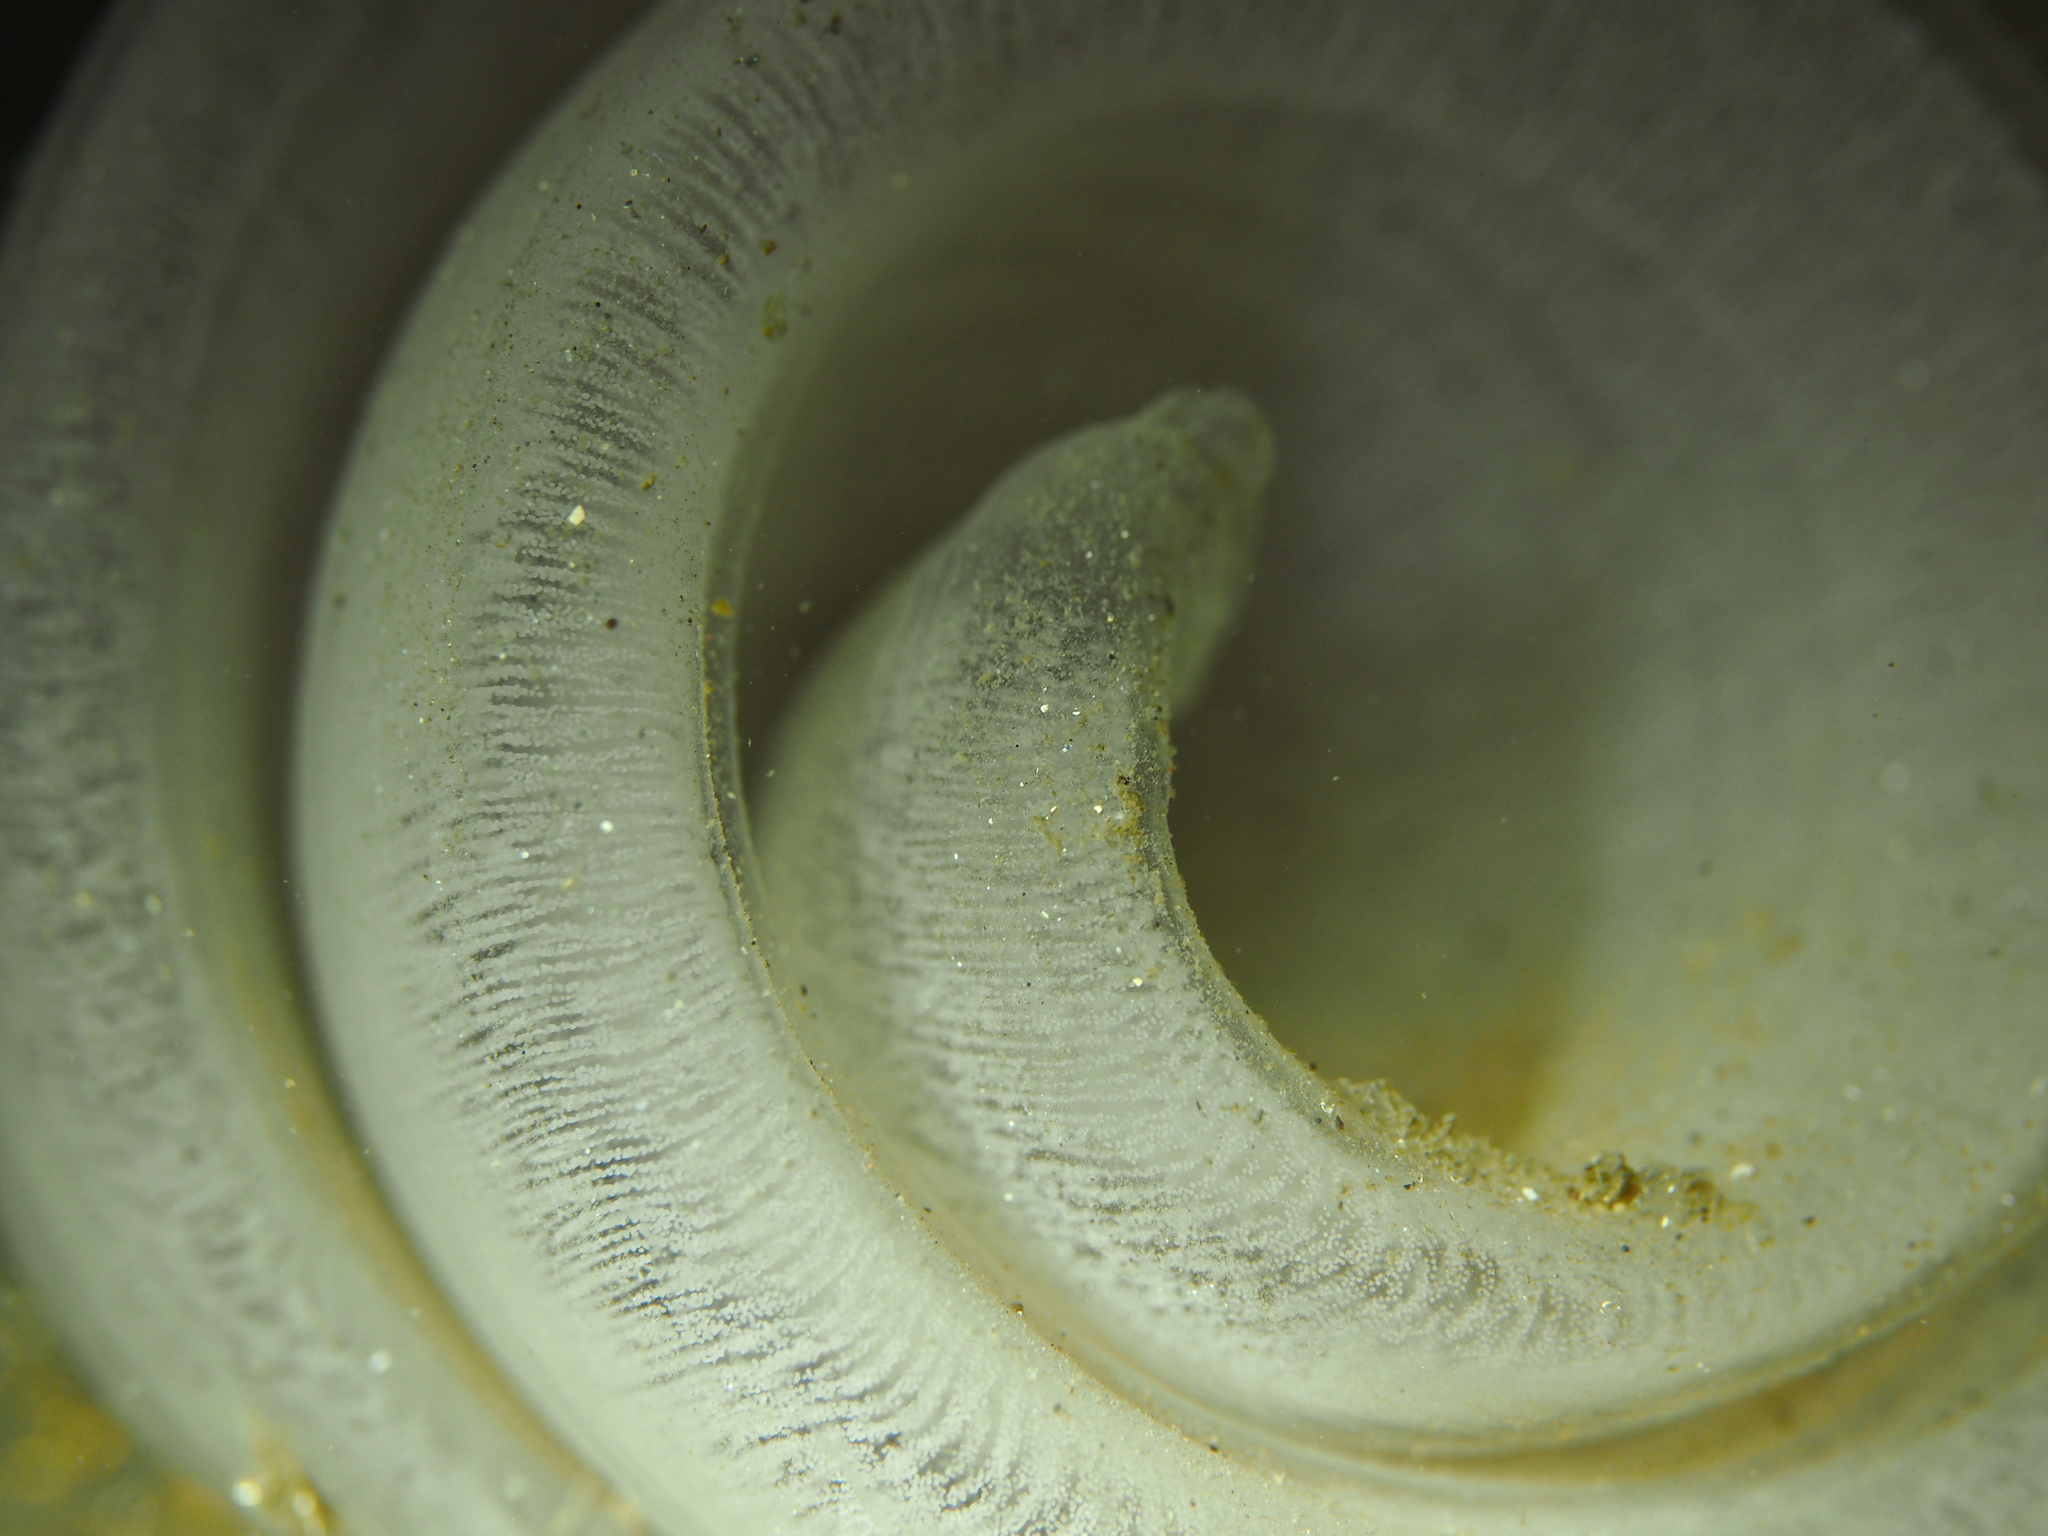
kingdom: Animalia
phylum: Mollusca
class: Gastropoda
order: Pleurobranchida
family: Pleurobranchidae
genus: Pleurobranchus
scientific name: Pleurobranchus membranaceus
